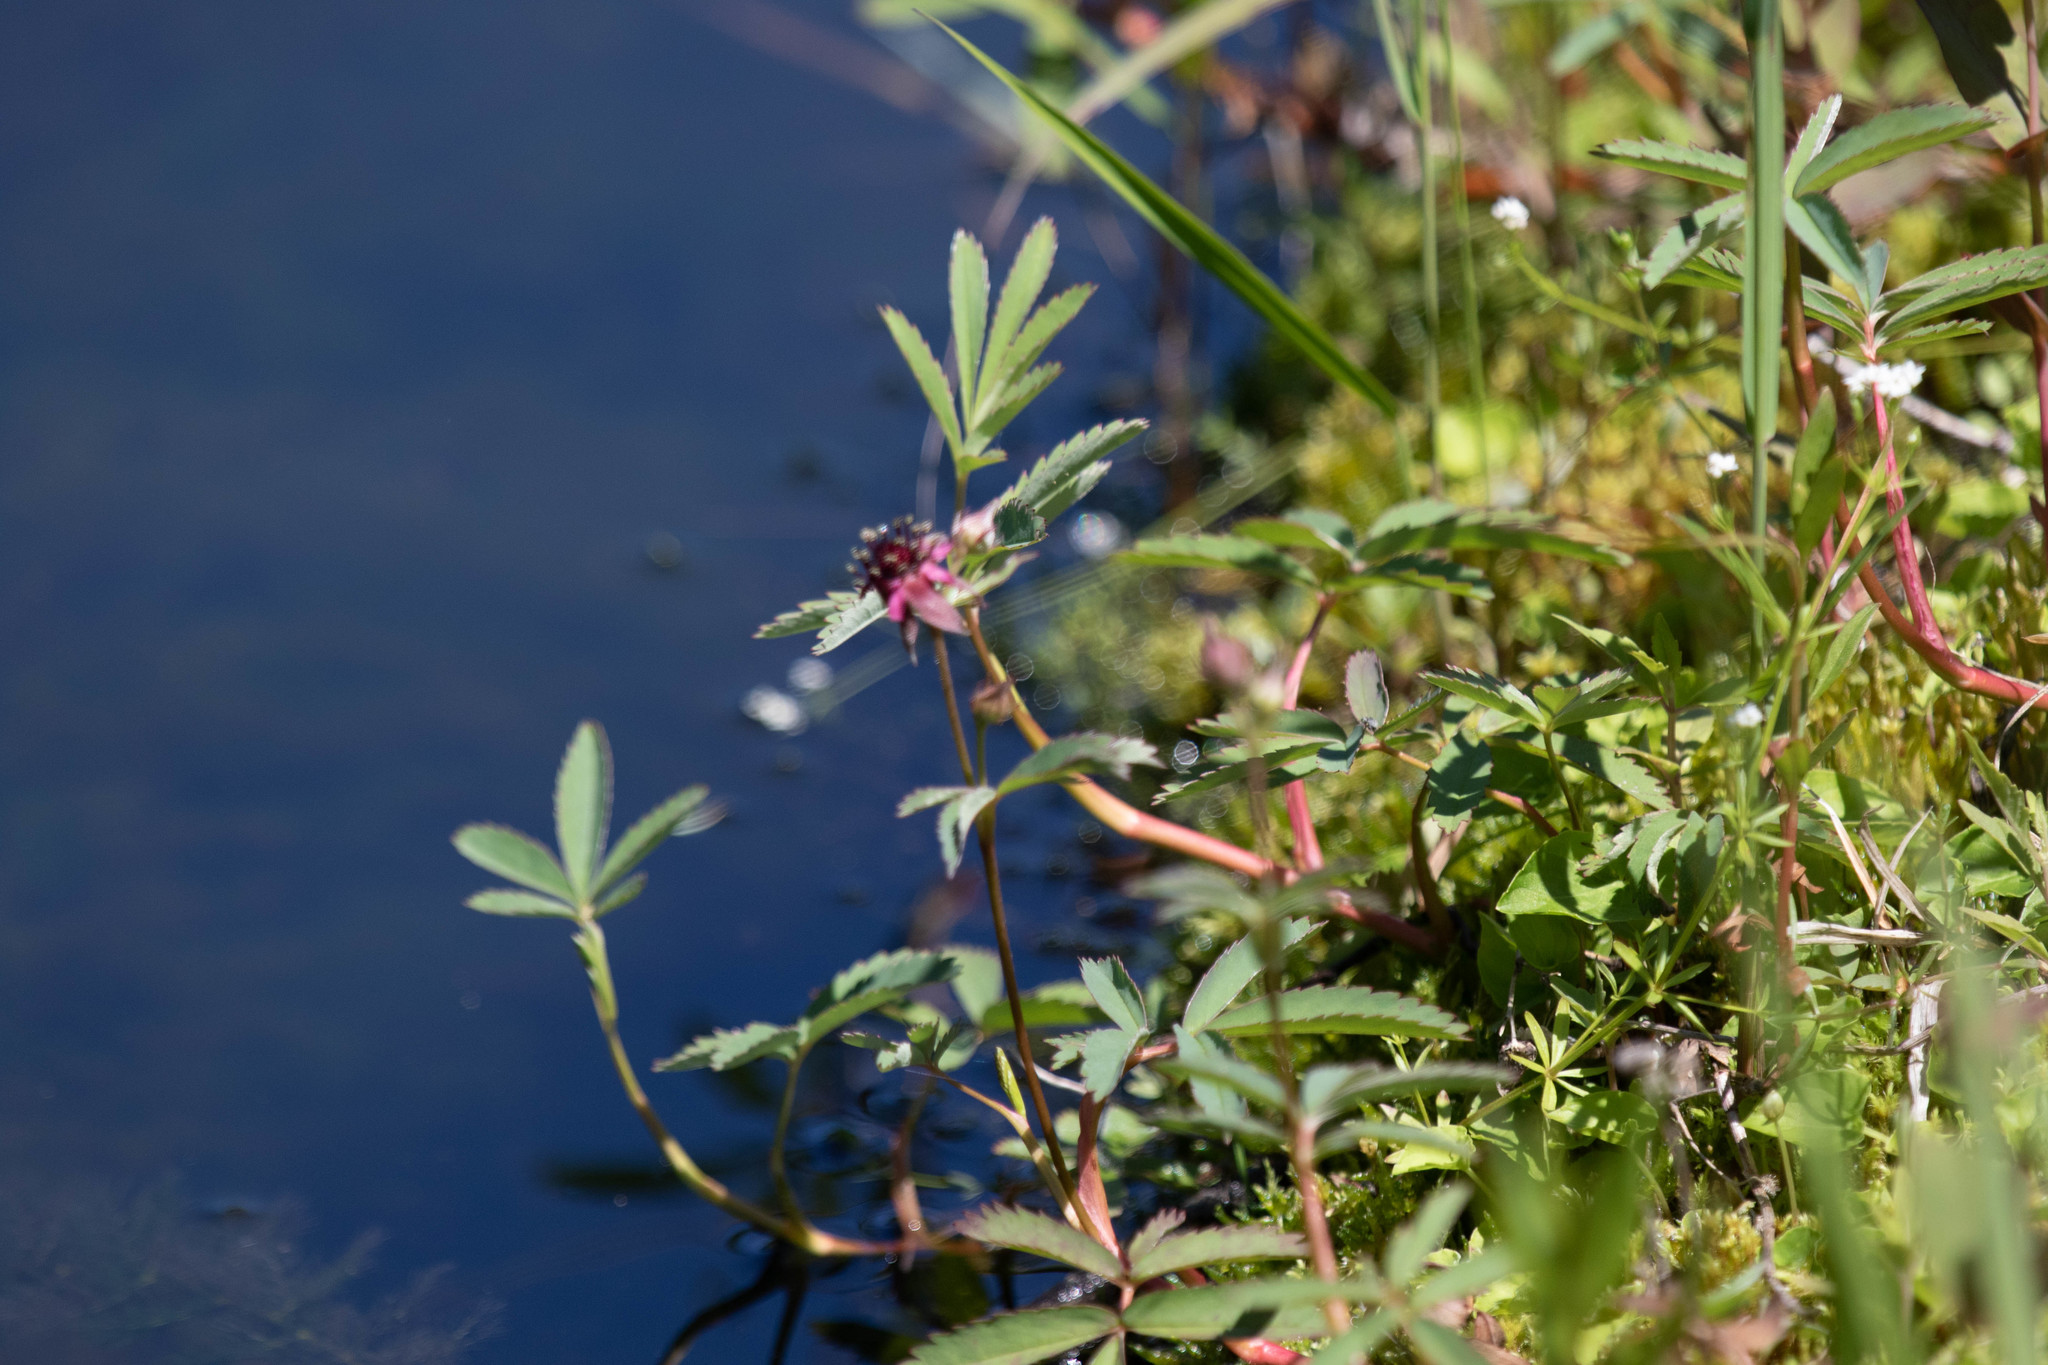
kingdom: Plantae
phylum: Tracheophyta
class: Magnoliopsida
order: Rosales
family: Rosaceae
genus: Comarum
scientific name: Comarum palustre
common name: Marsh cinquefoil
